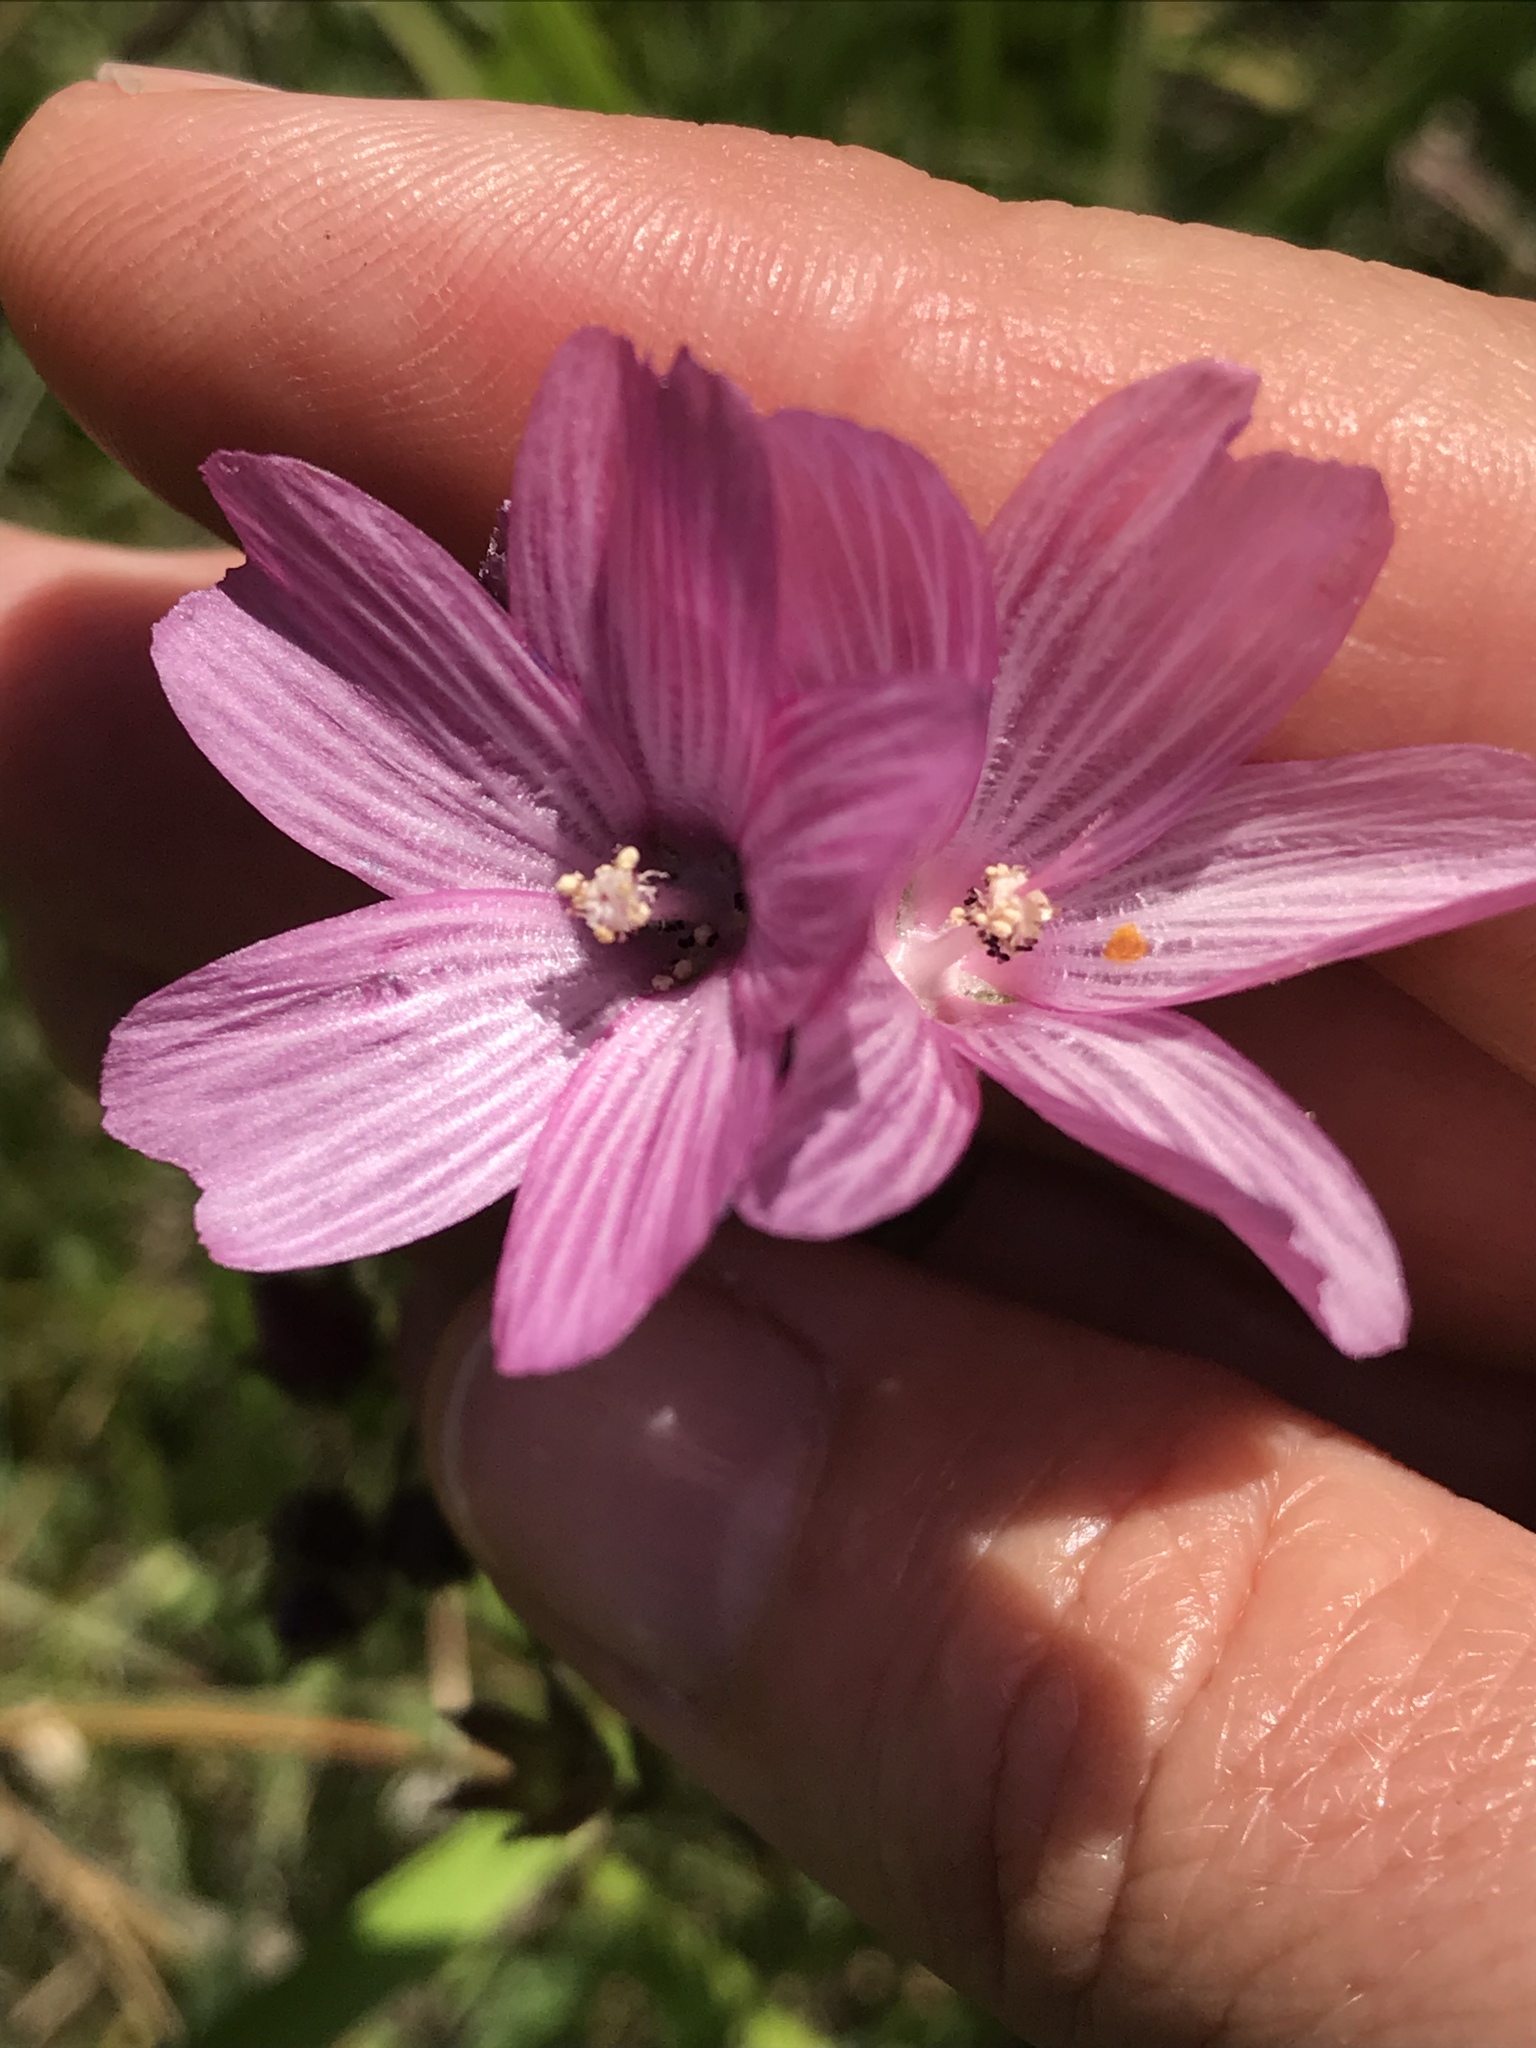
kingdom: Plantae
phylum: Tracheophyta
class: Magnoliopsida
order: Malvales
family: Malvaceae
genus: Sidalcea
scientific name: Sidalcea malviflora
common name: Greek mallow
